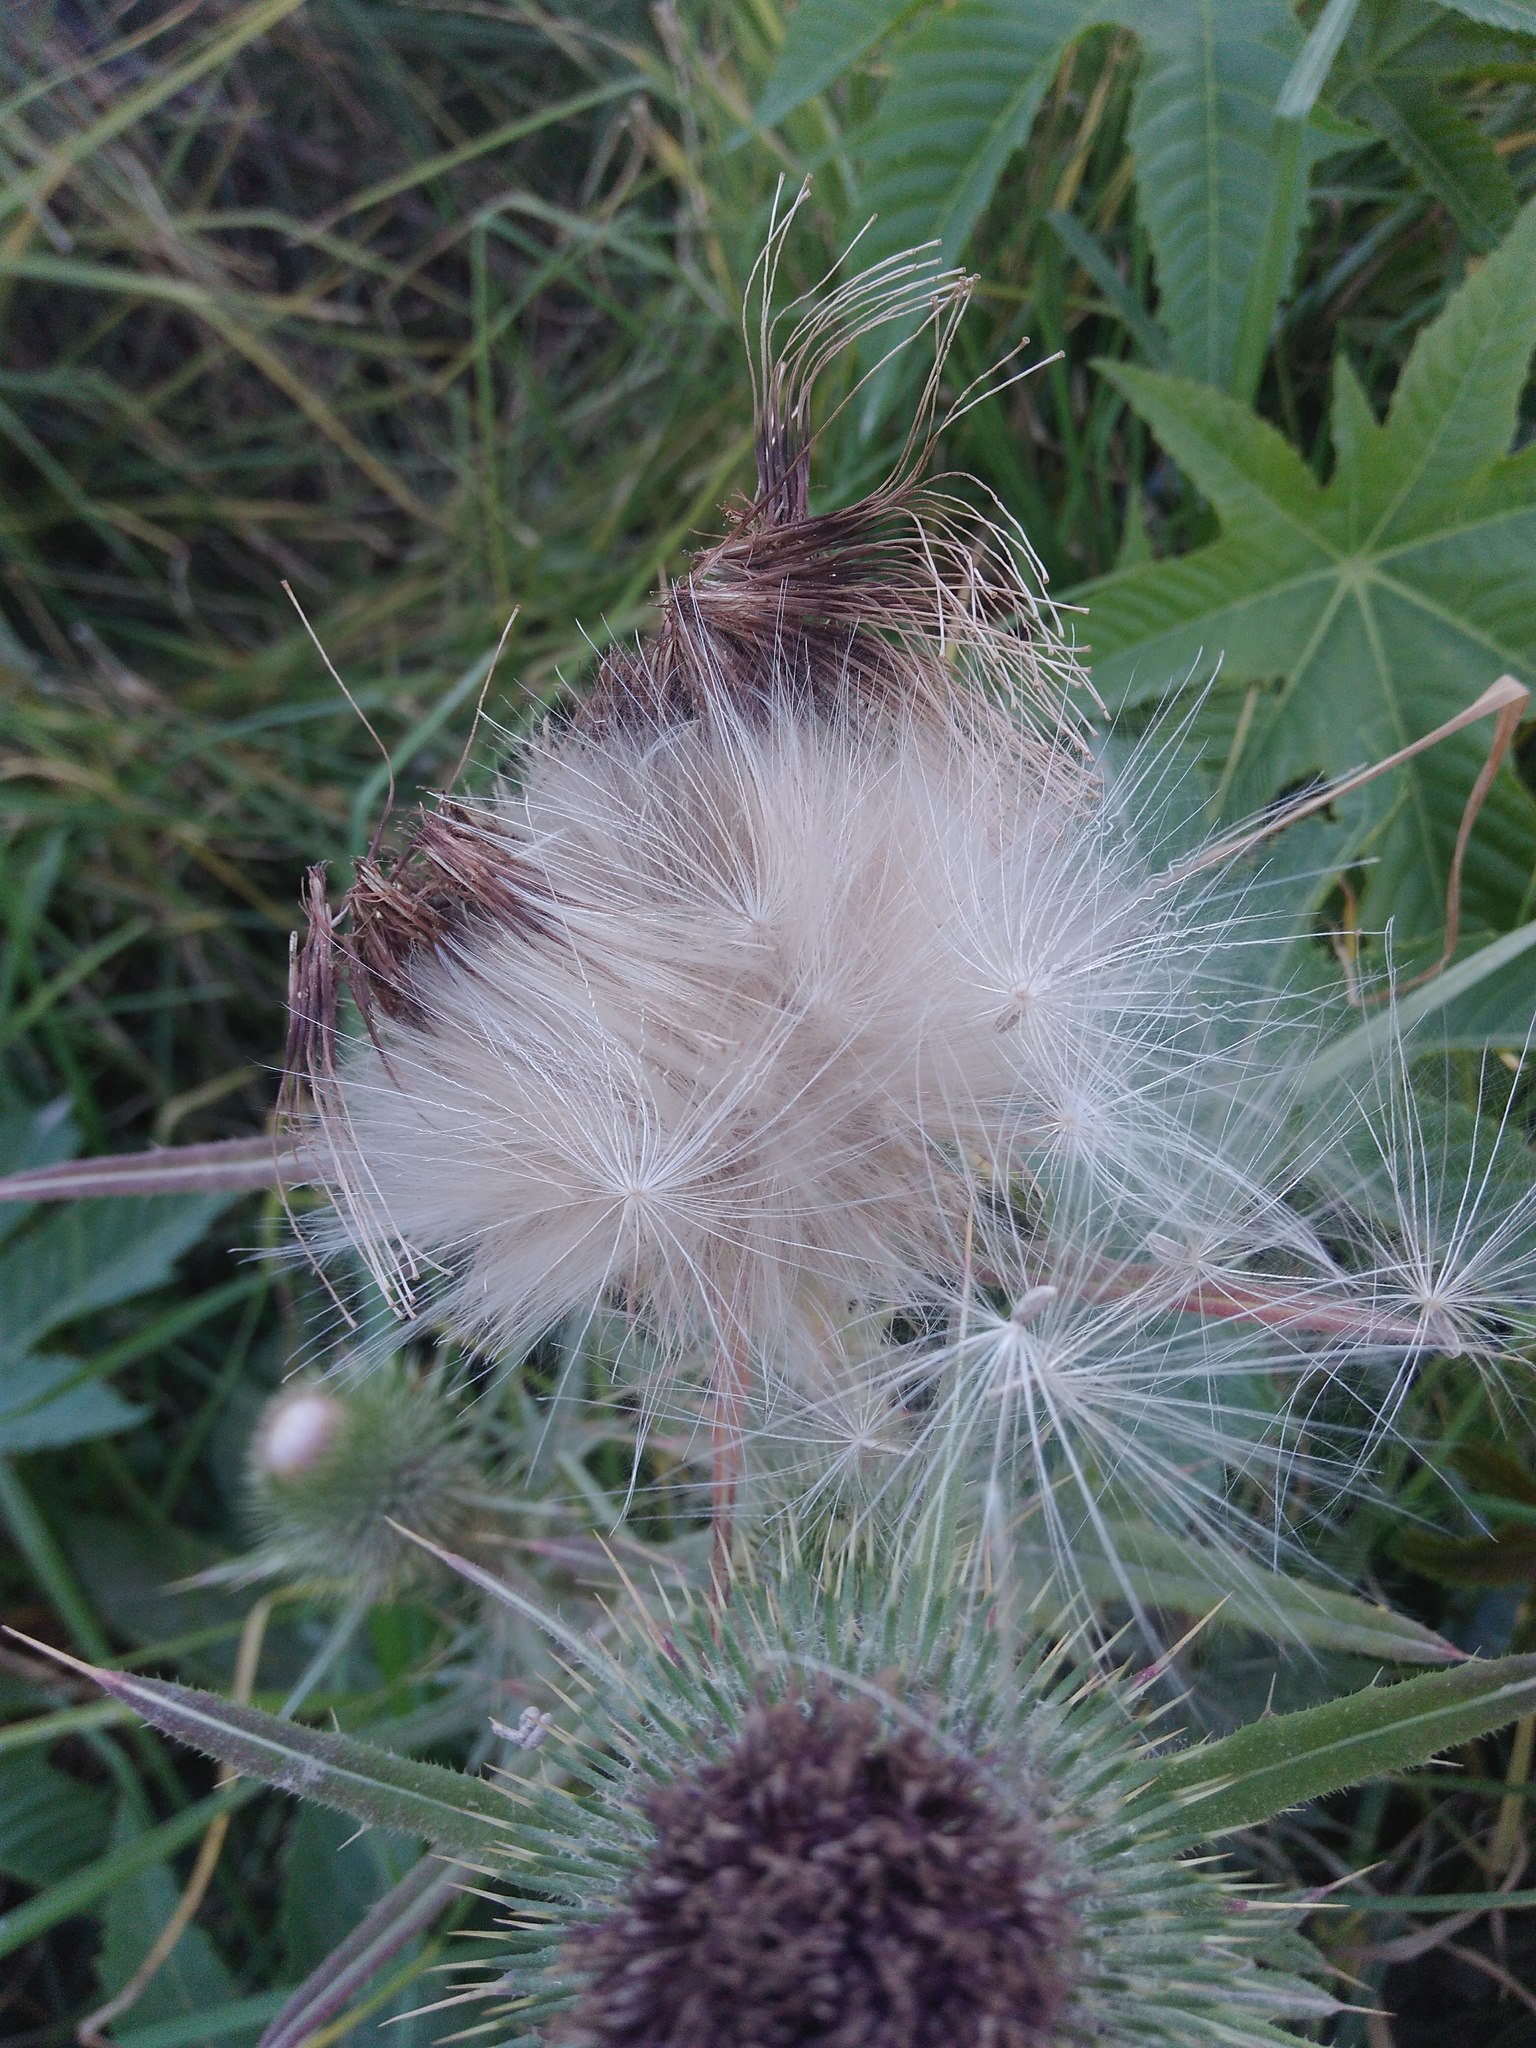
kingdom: Plantae
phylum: Tracheophyta
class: Magnoliopsida
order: Asterales
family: Asteraceae
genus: Cirsium
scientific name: Cirsium vulgare
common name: Bull thistle
